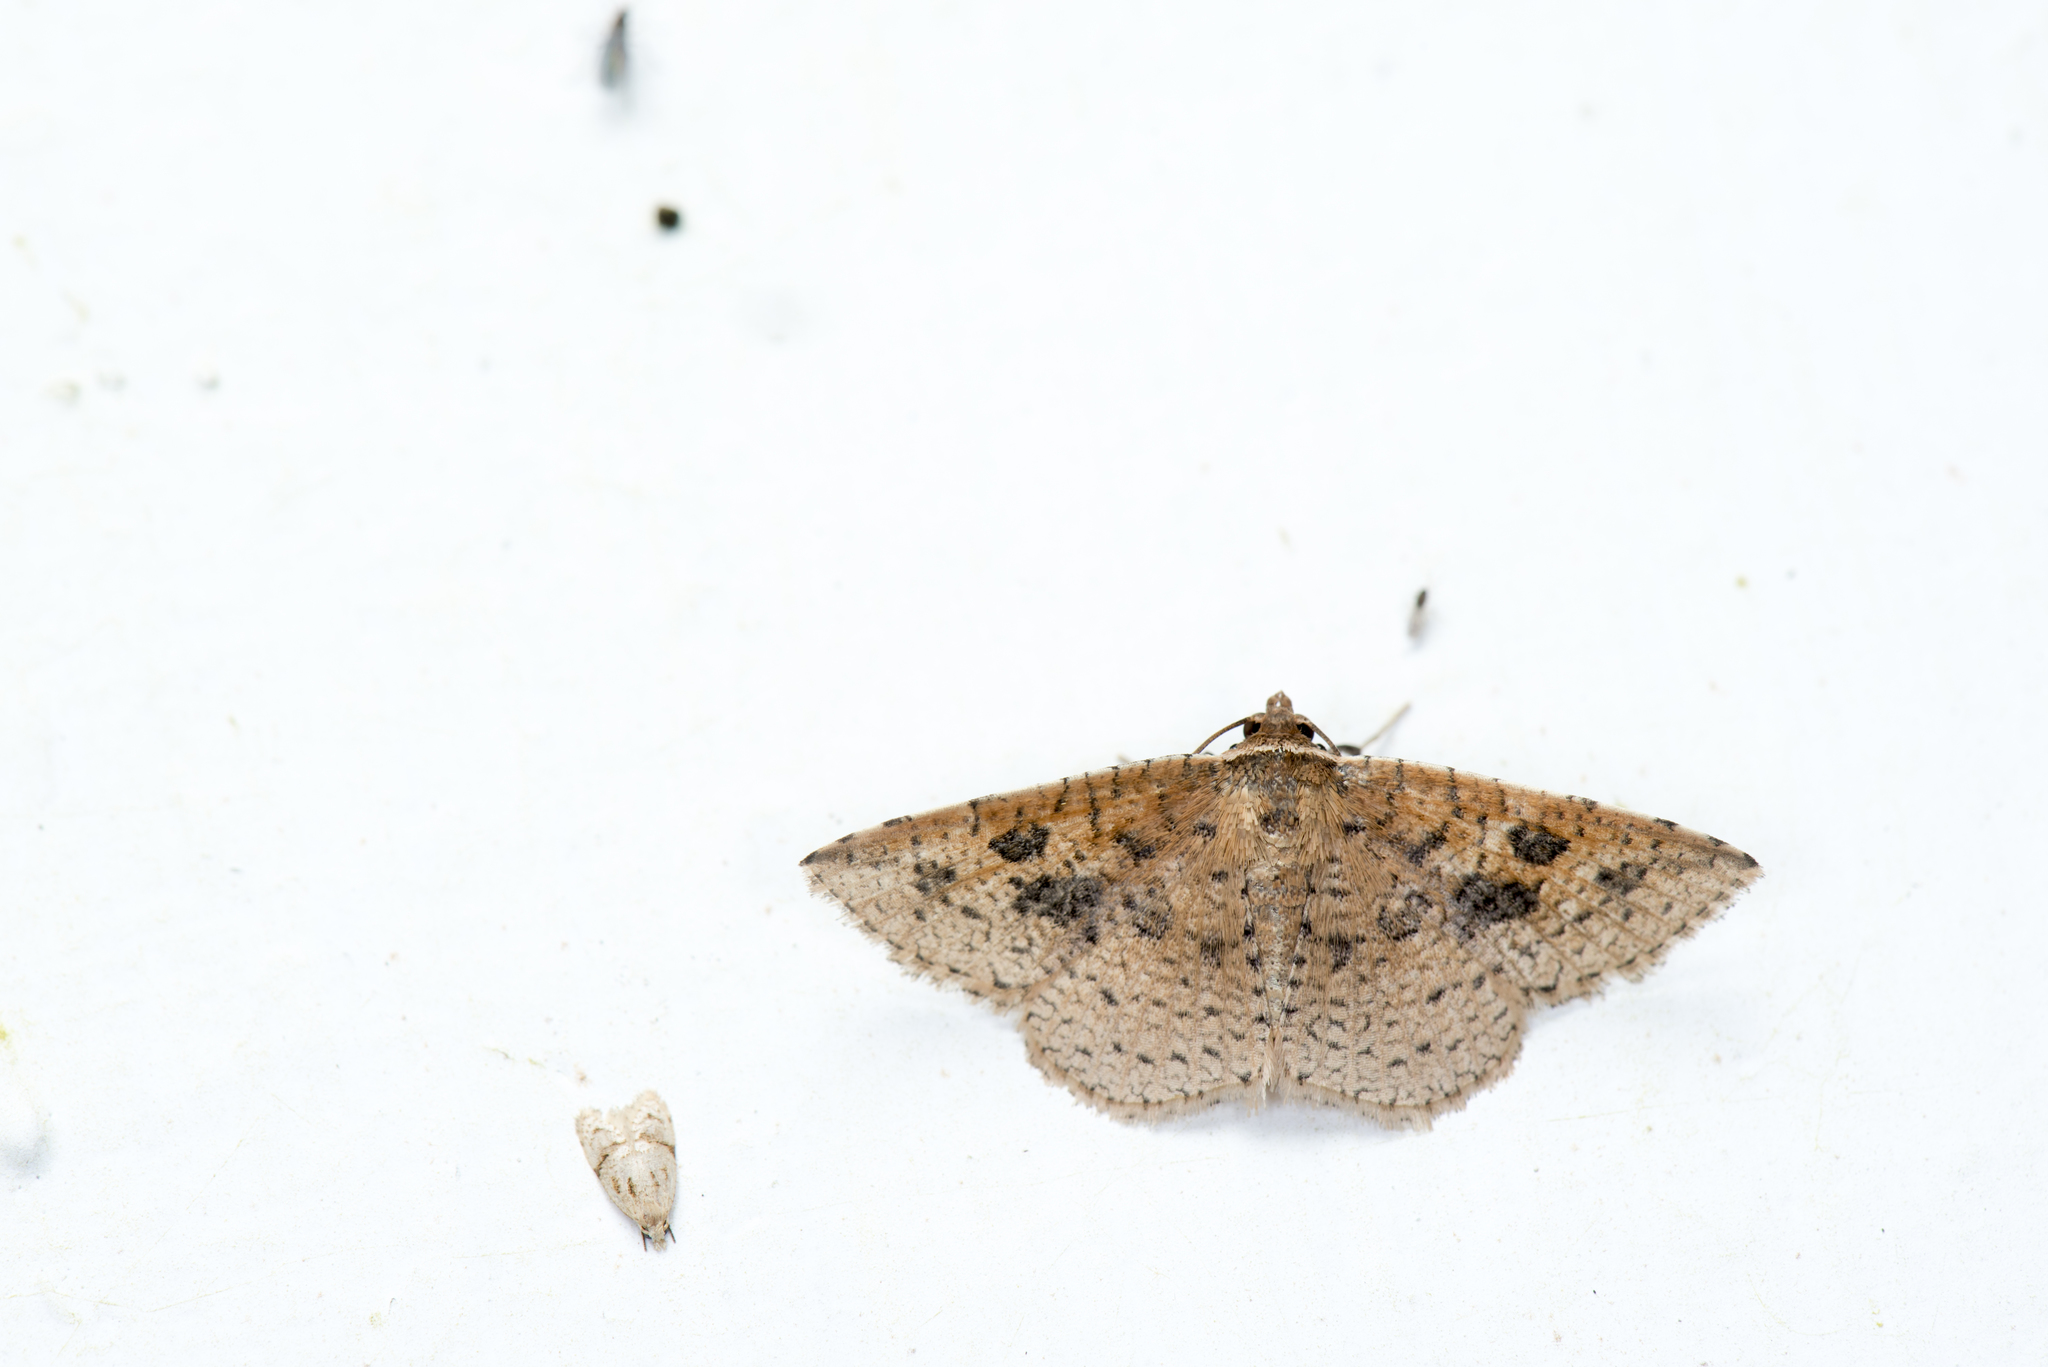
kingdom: Animalia
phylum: Arthropoda
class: Insecta
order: Lepidoptera
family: Thyrididae
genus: Striglina
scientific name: Striglina mediofascia
